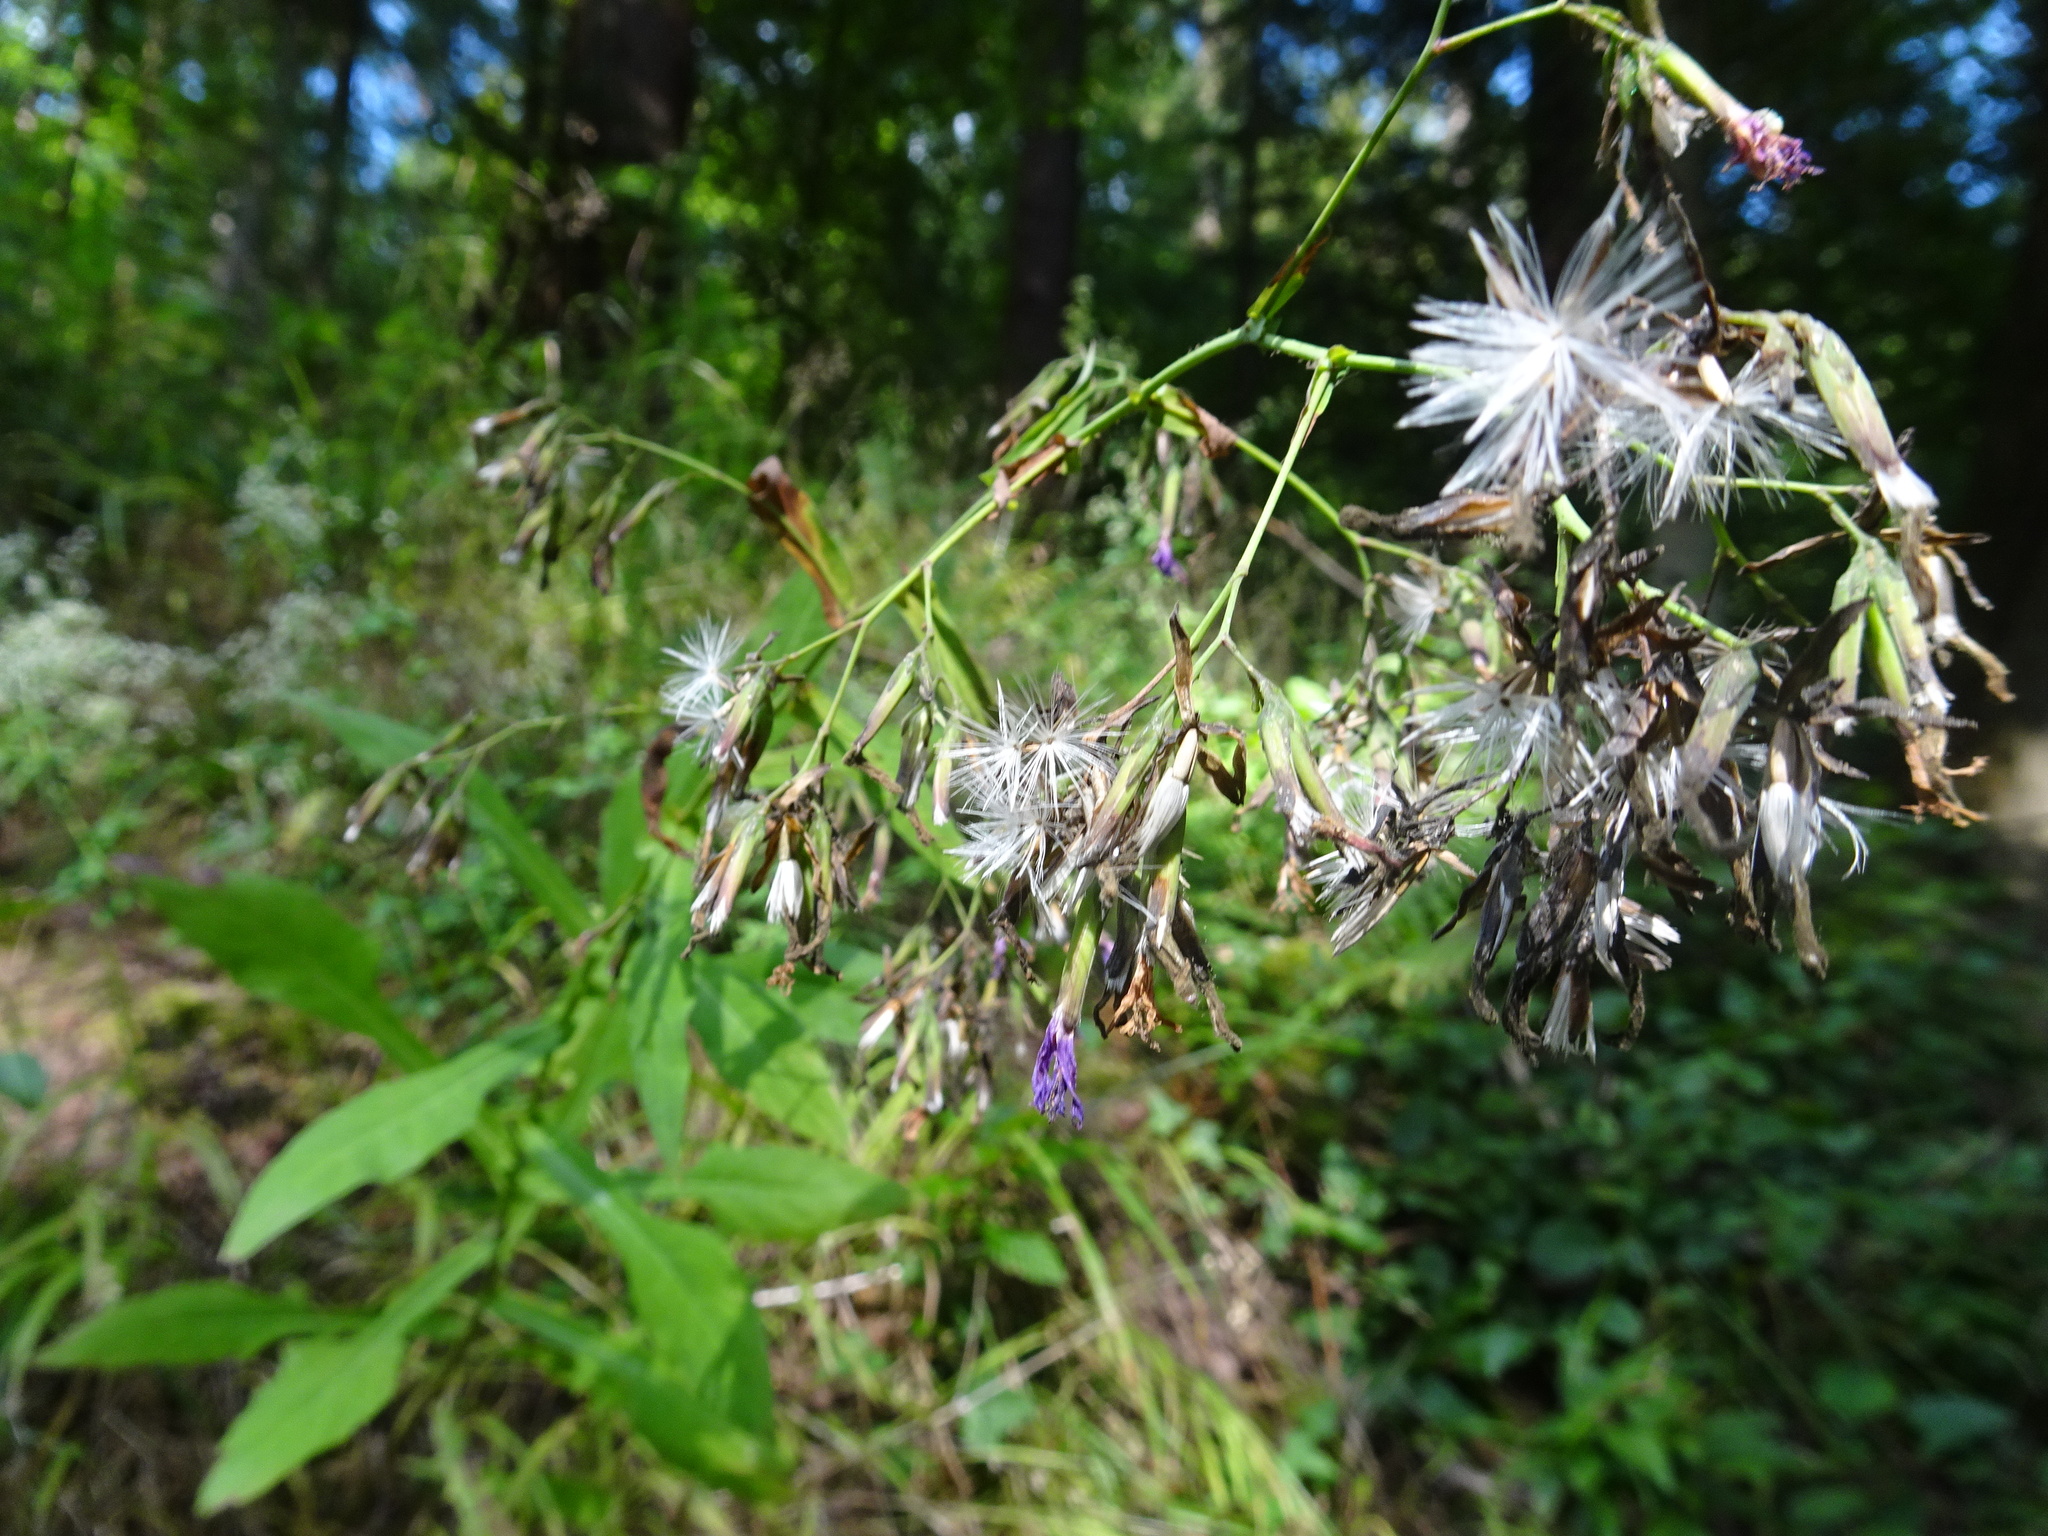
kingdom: Plantae
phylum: Tracheophyta
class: Magnoliopsida
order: Asterales
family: Asteraceae
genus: Prenanthes
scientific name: Prenanthes purpurea
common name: Purple lettuce
